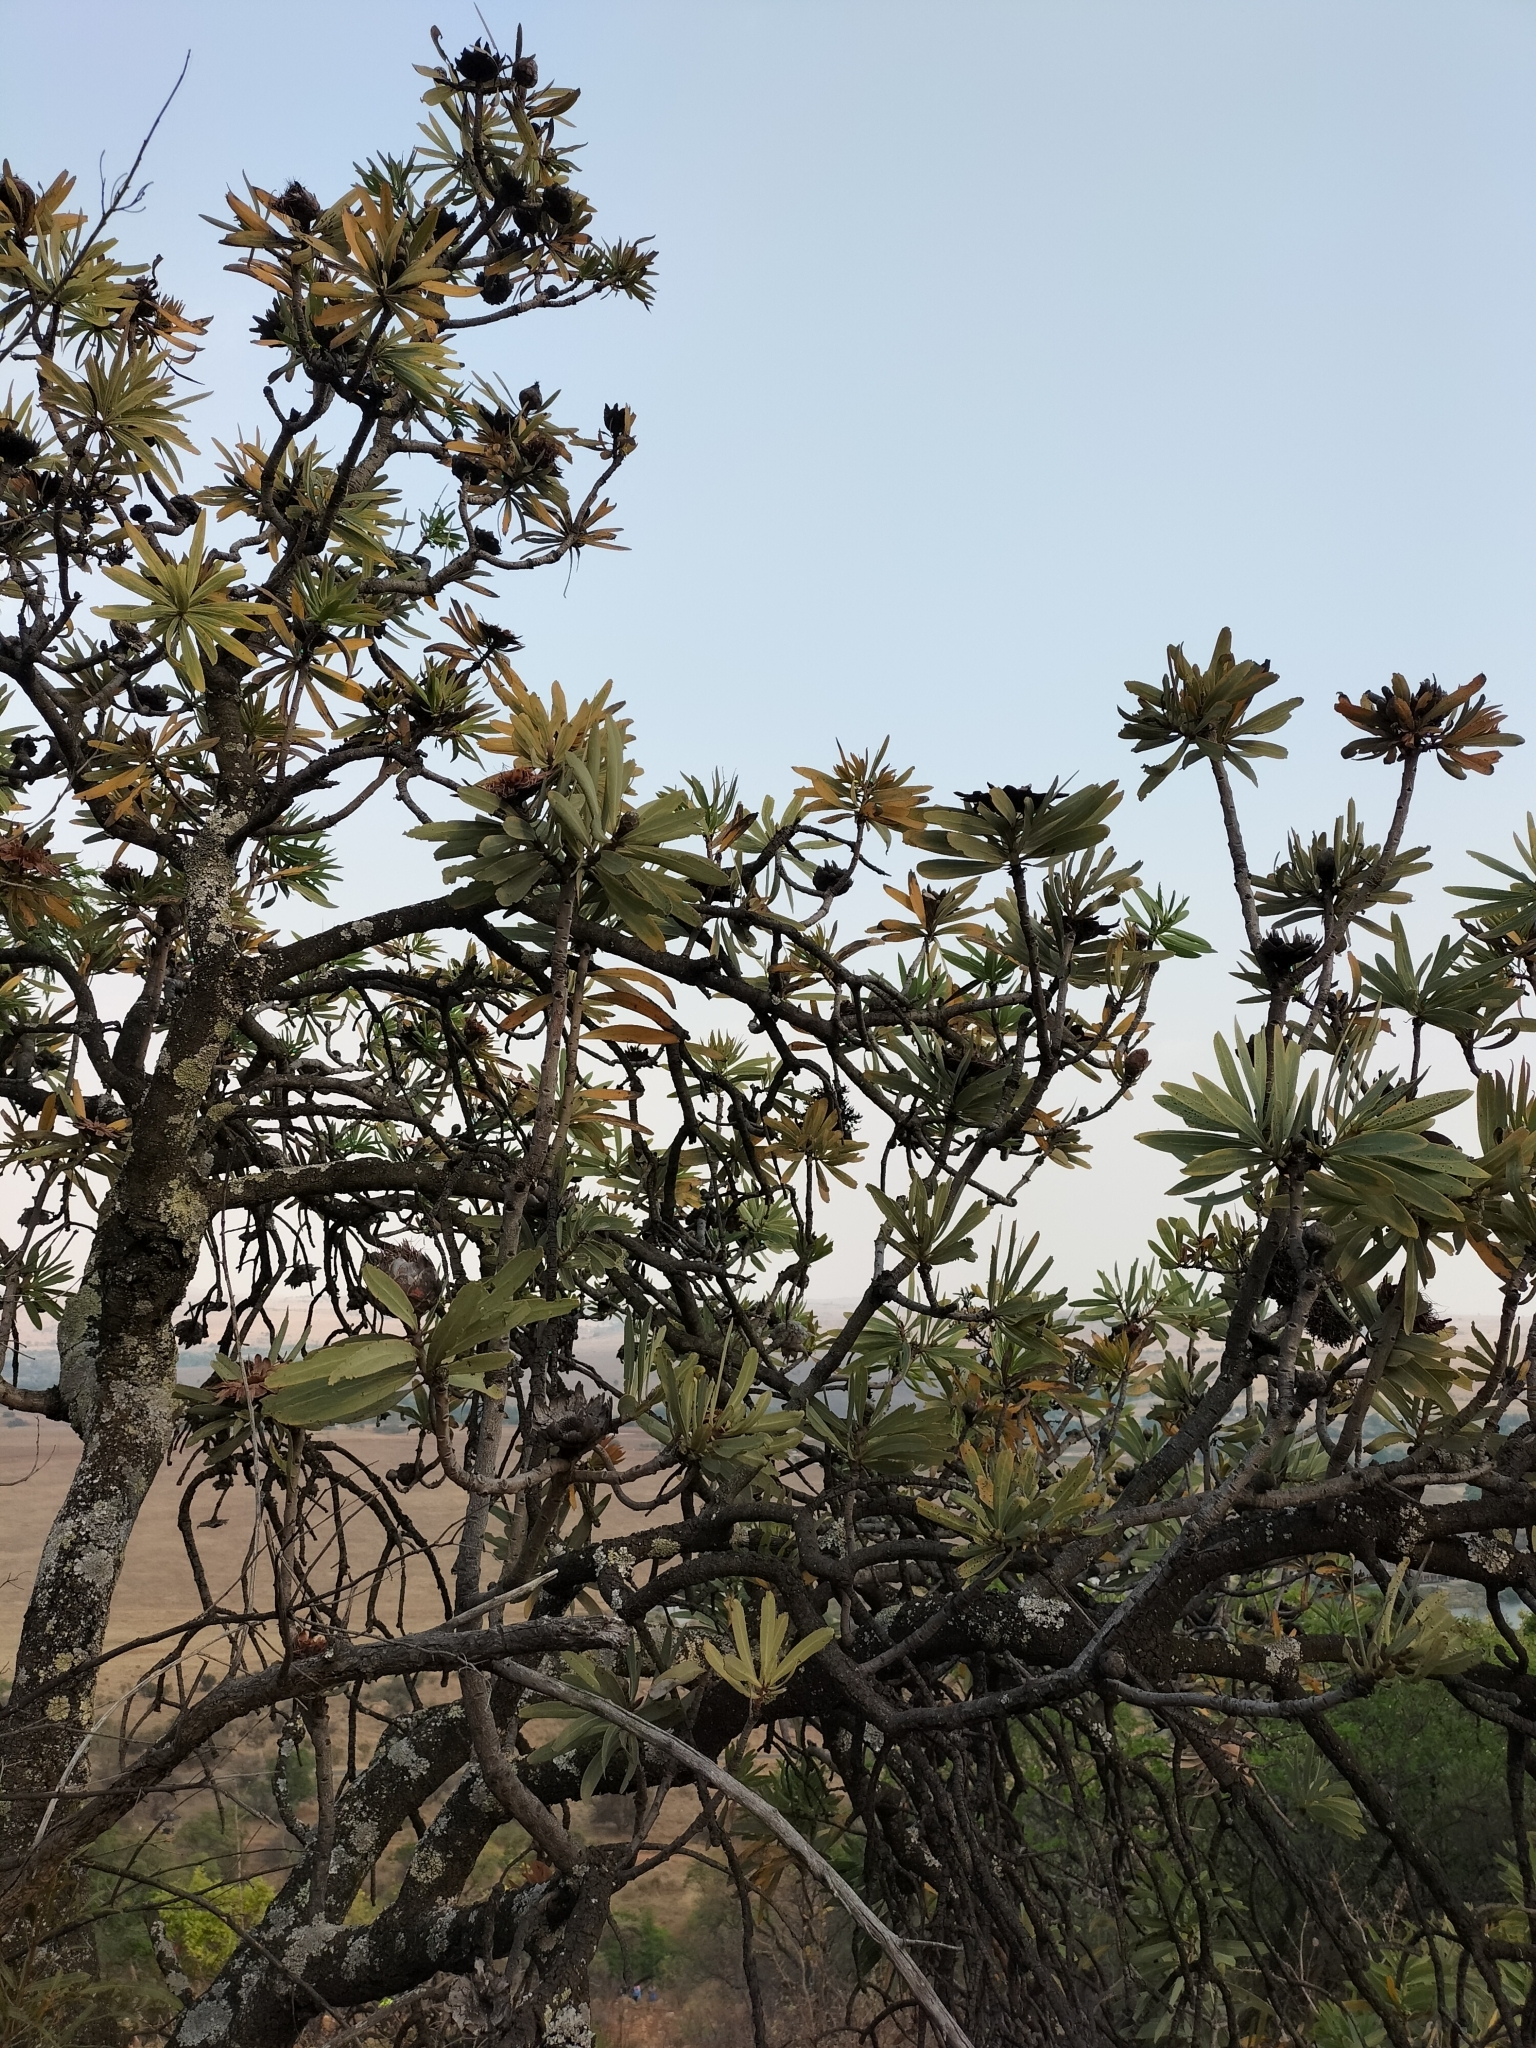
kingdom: Plantae
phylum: Tracheophyta
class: Magnoliopsida
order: Proteales
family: Proteaceae
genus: Protea
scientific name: Protea caffra
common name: Common sugarbush
